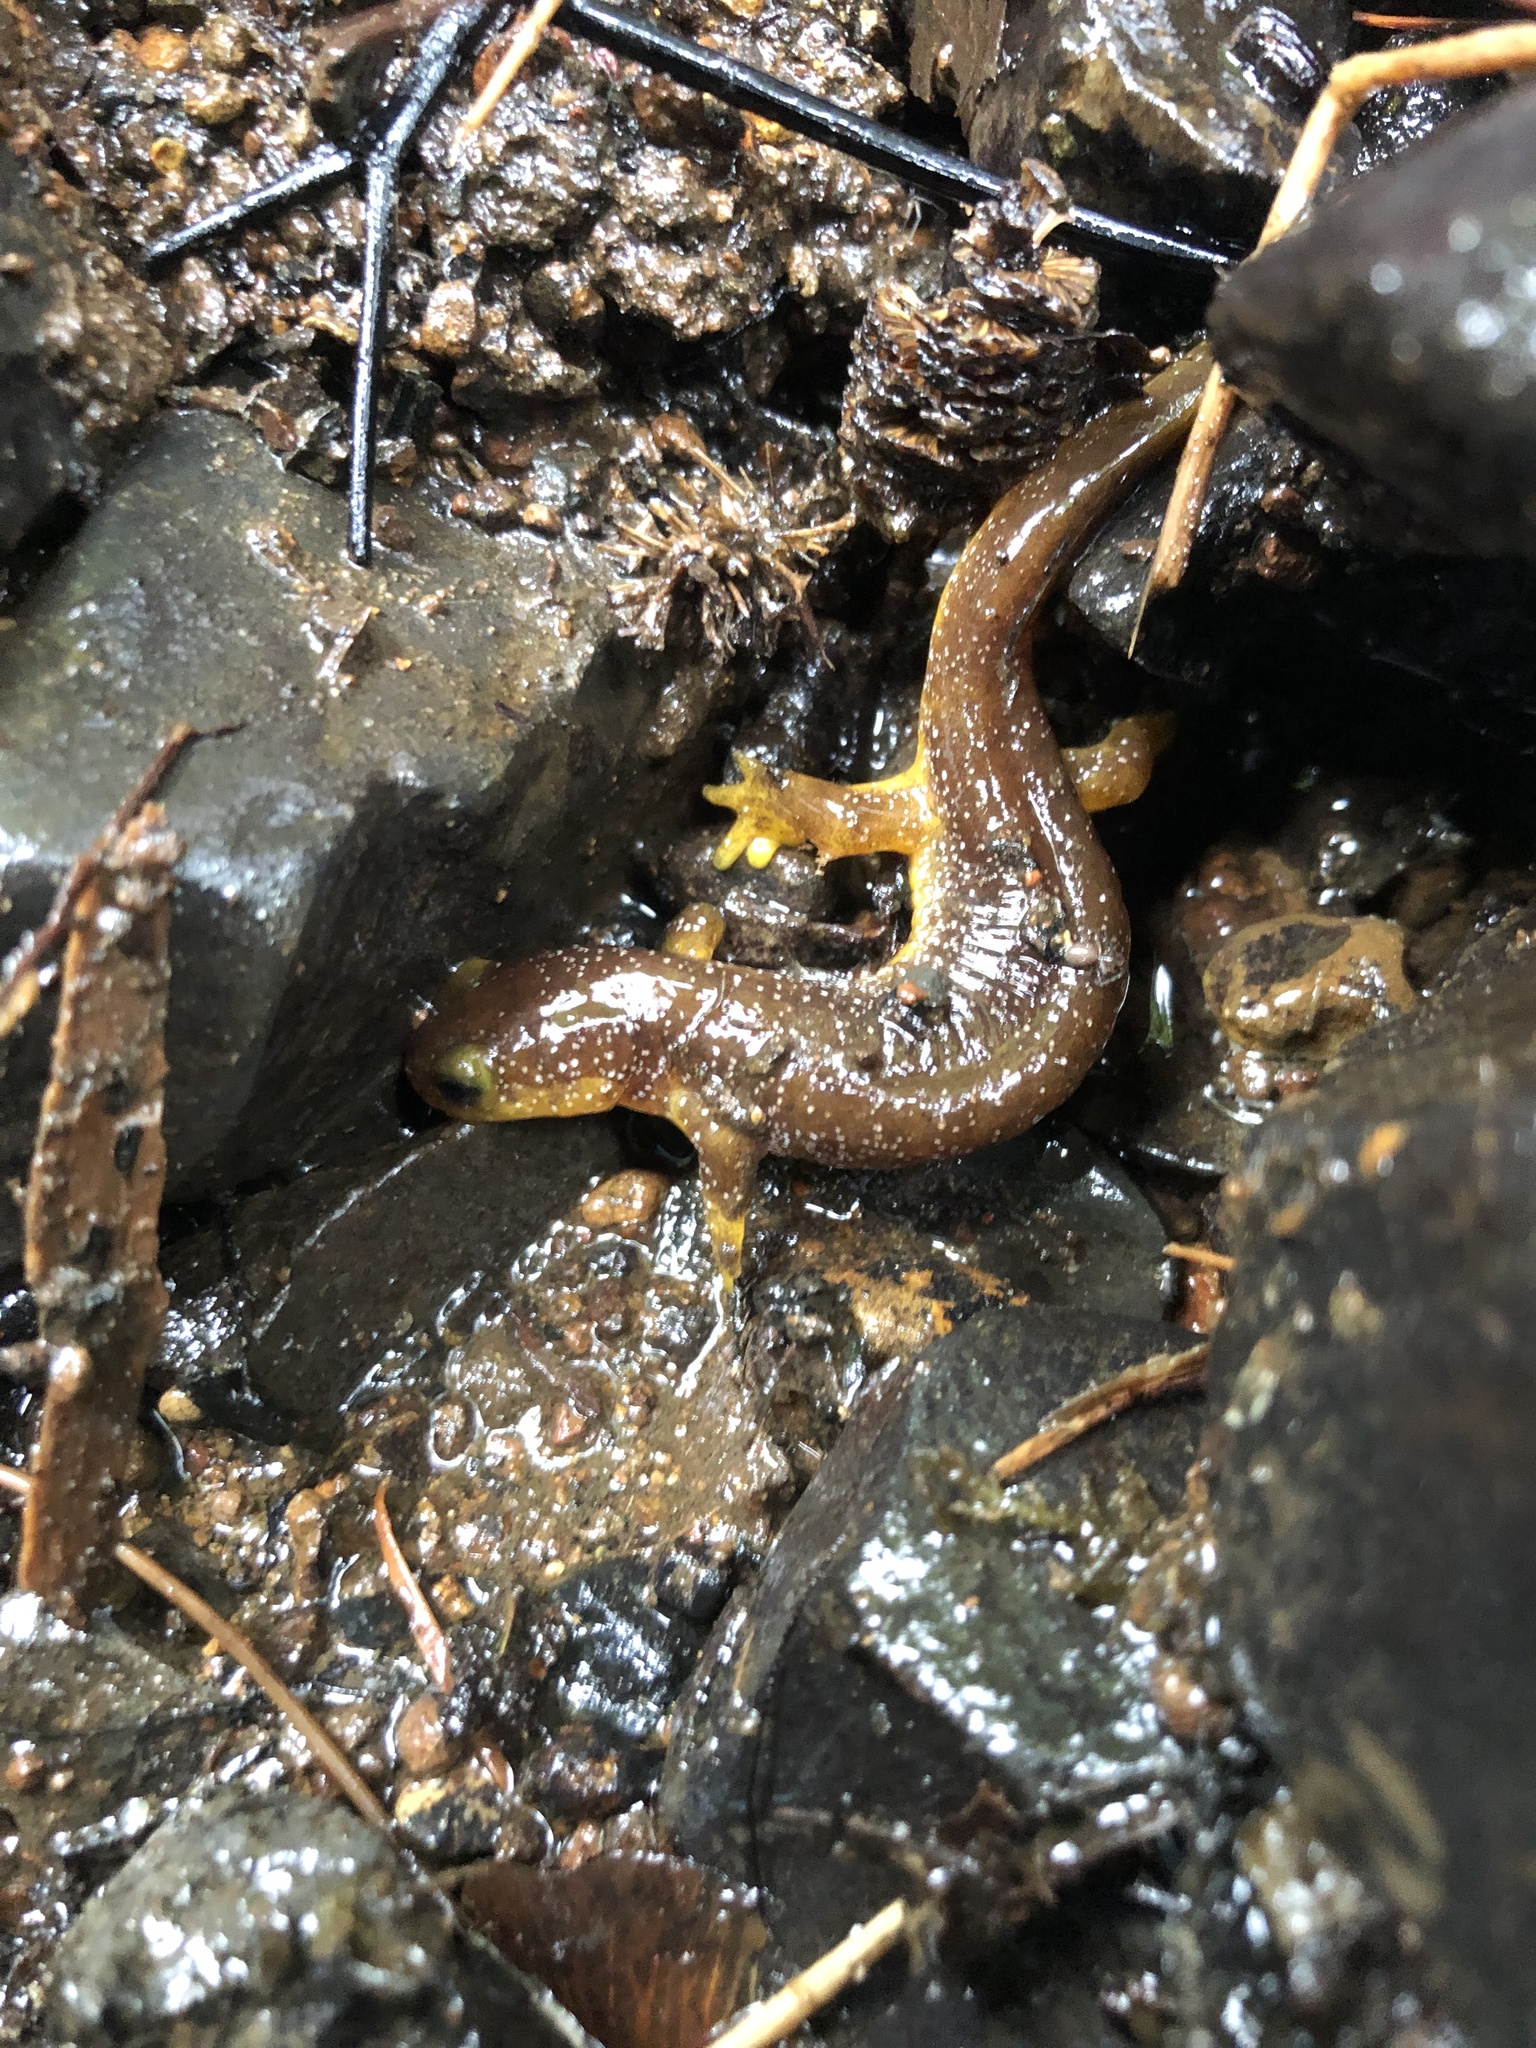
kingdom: Animalia
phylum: Chordata
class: Amphibia
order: Caudata
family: Rhyacotritonidae
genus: Rhyacotriton
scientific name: Rhyacotriton kezeri
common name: Columbia torrent salamander
